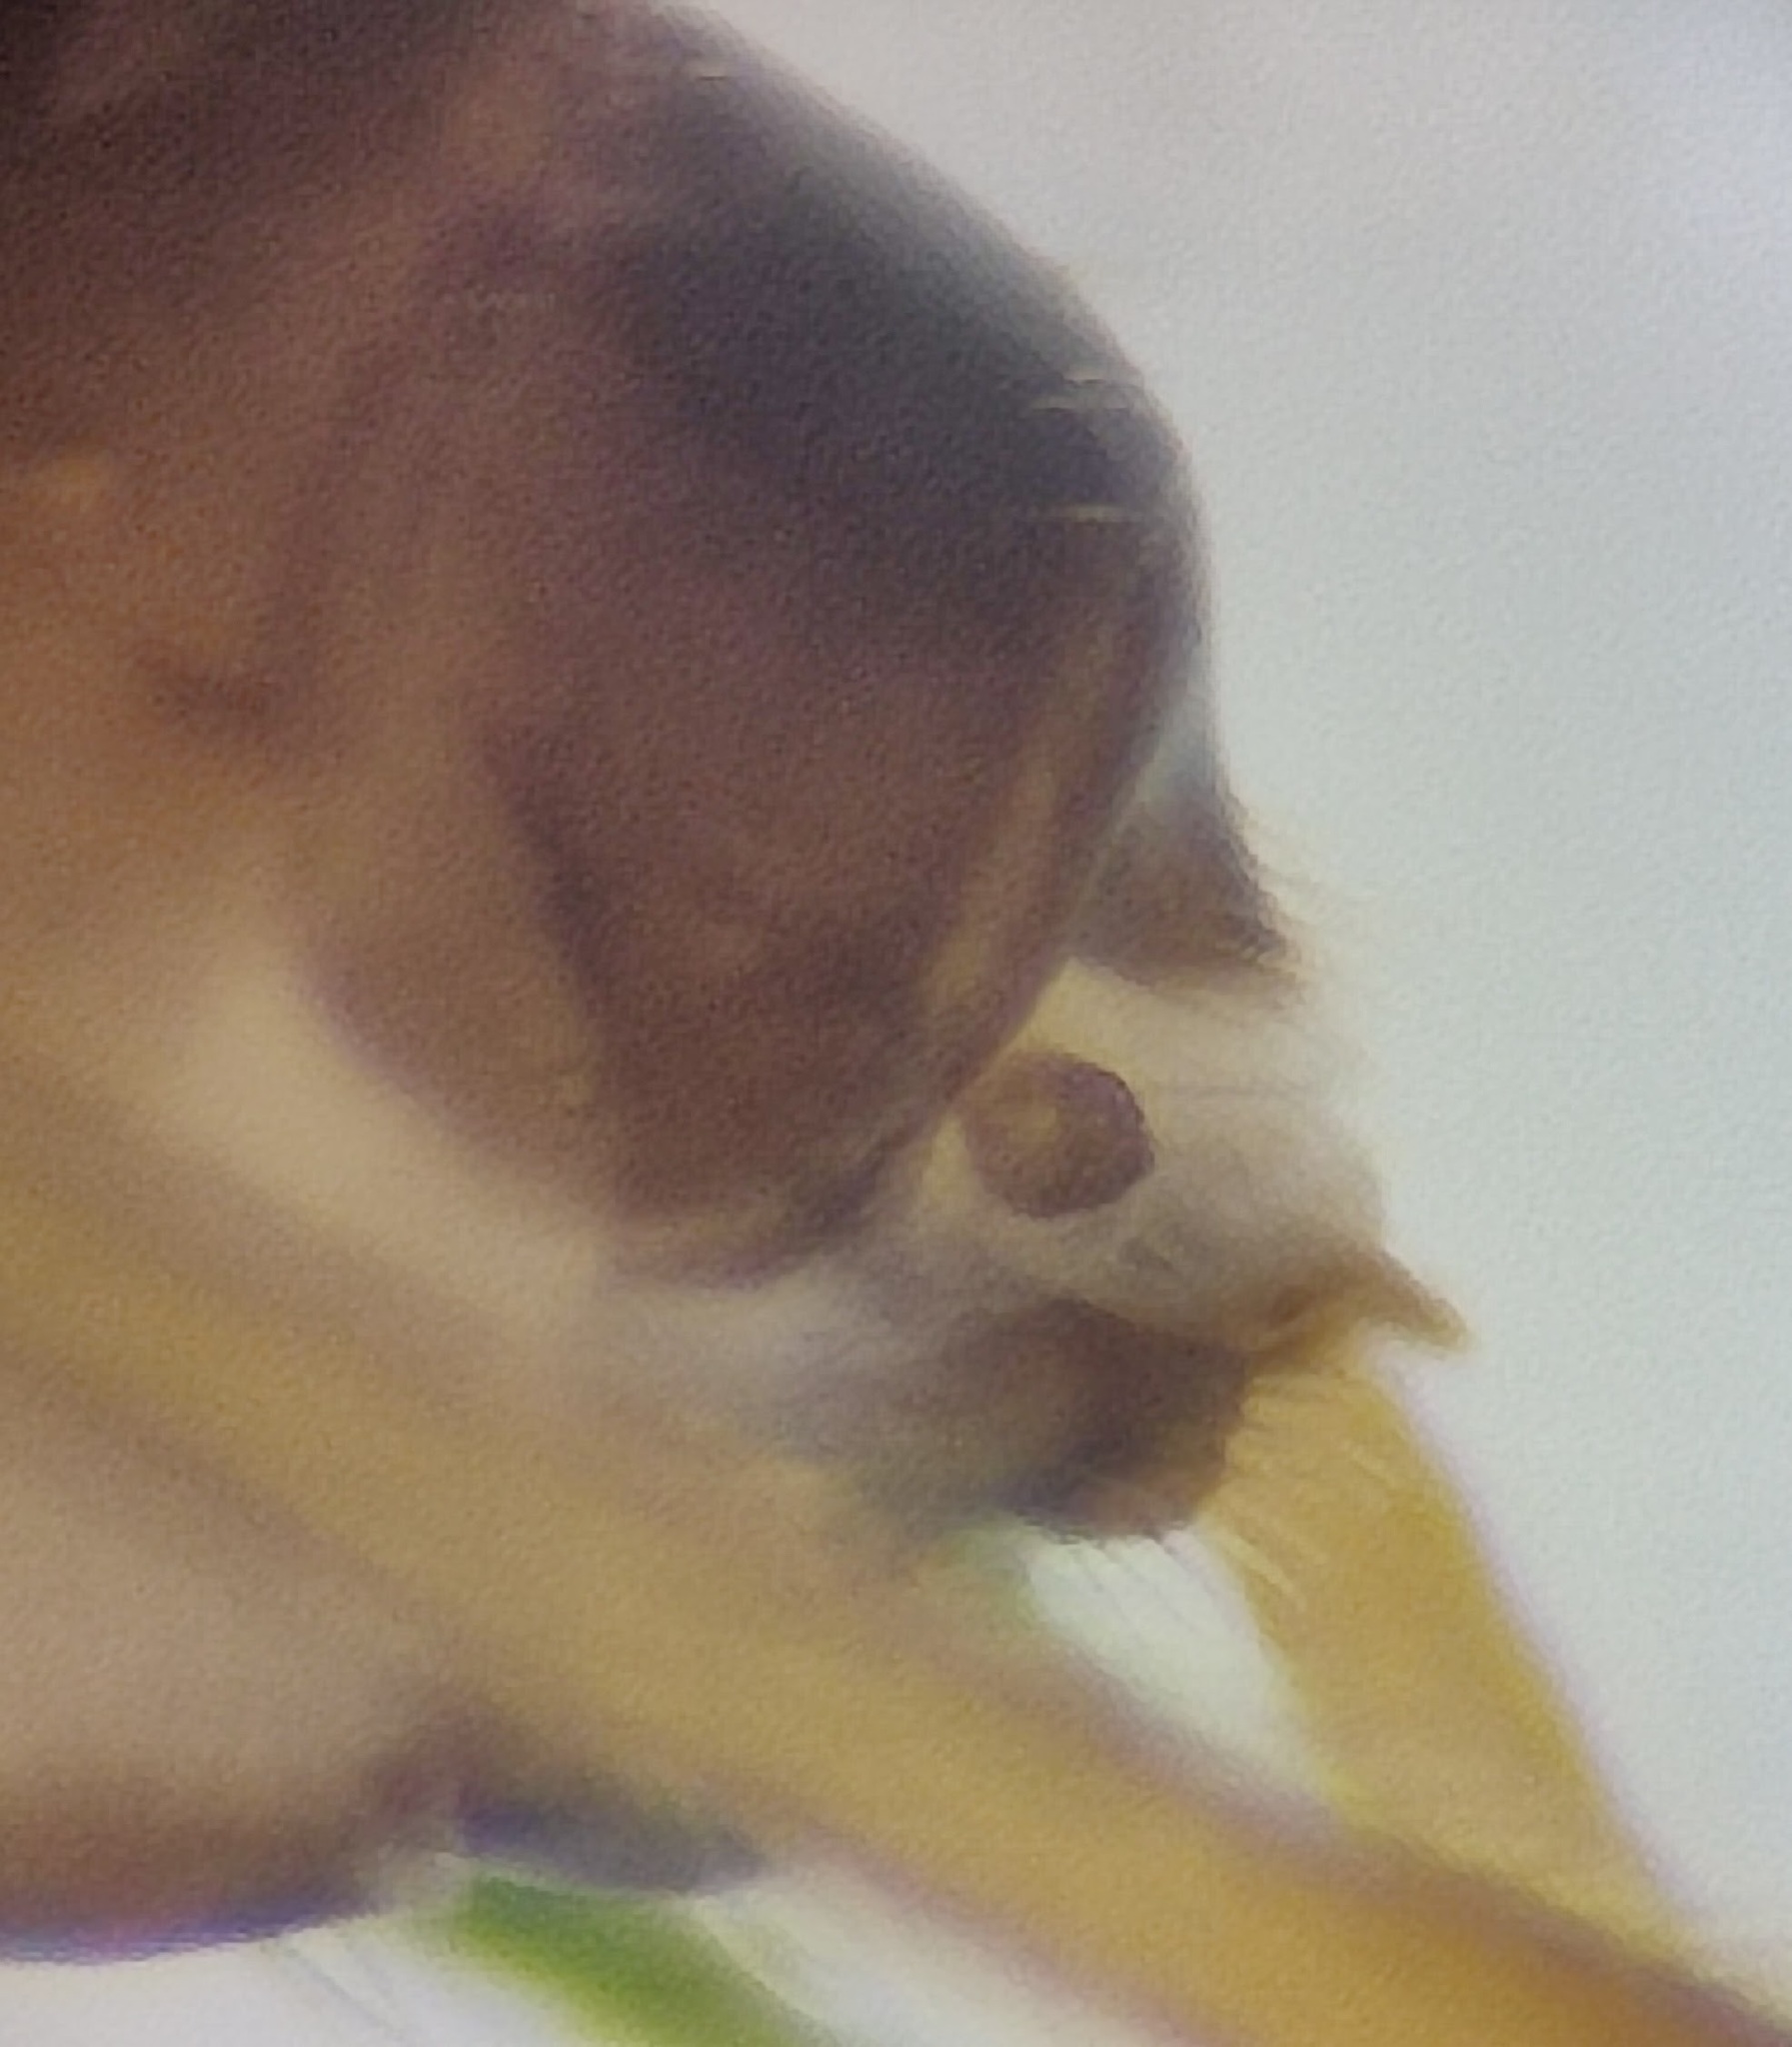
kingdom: Animalia
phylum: Arthropoda
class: Insecta
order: Hymenoptera
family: Braconidae
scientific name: Braconidae
